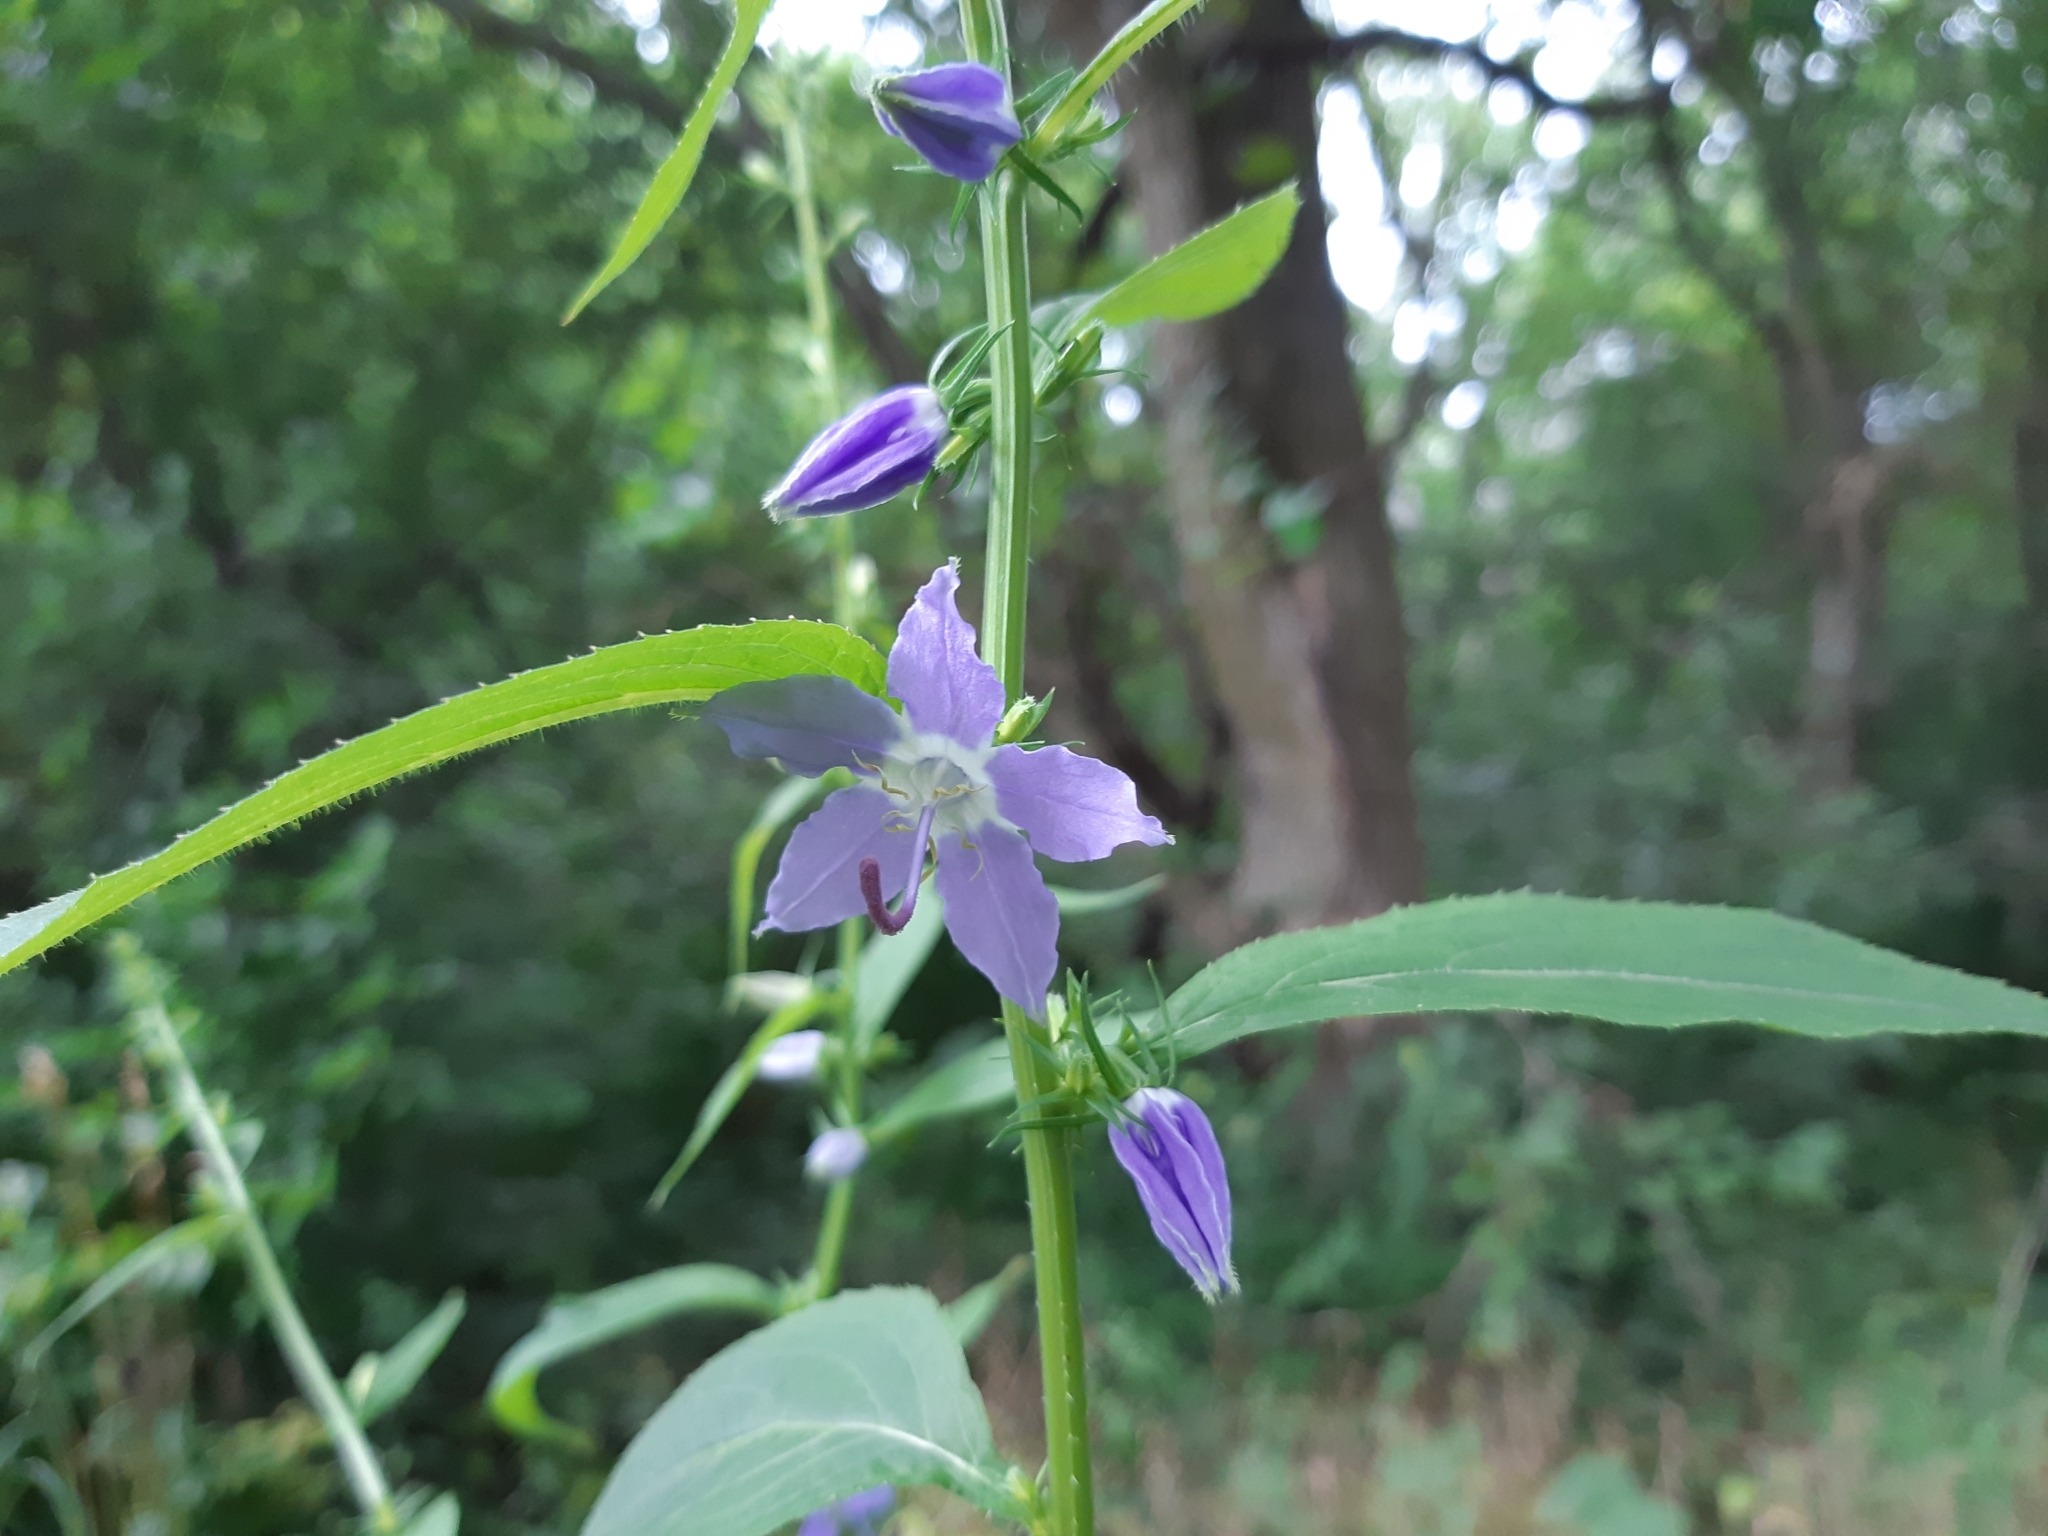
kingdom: Plantae
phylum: Tracheophyta
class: Magnoliopsida
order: Asterales
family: Campanulaceae
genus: Campanulastrum
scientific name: Campanulastrum americanum
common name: American bellflower
